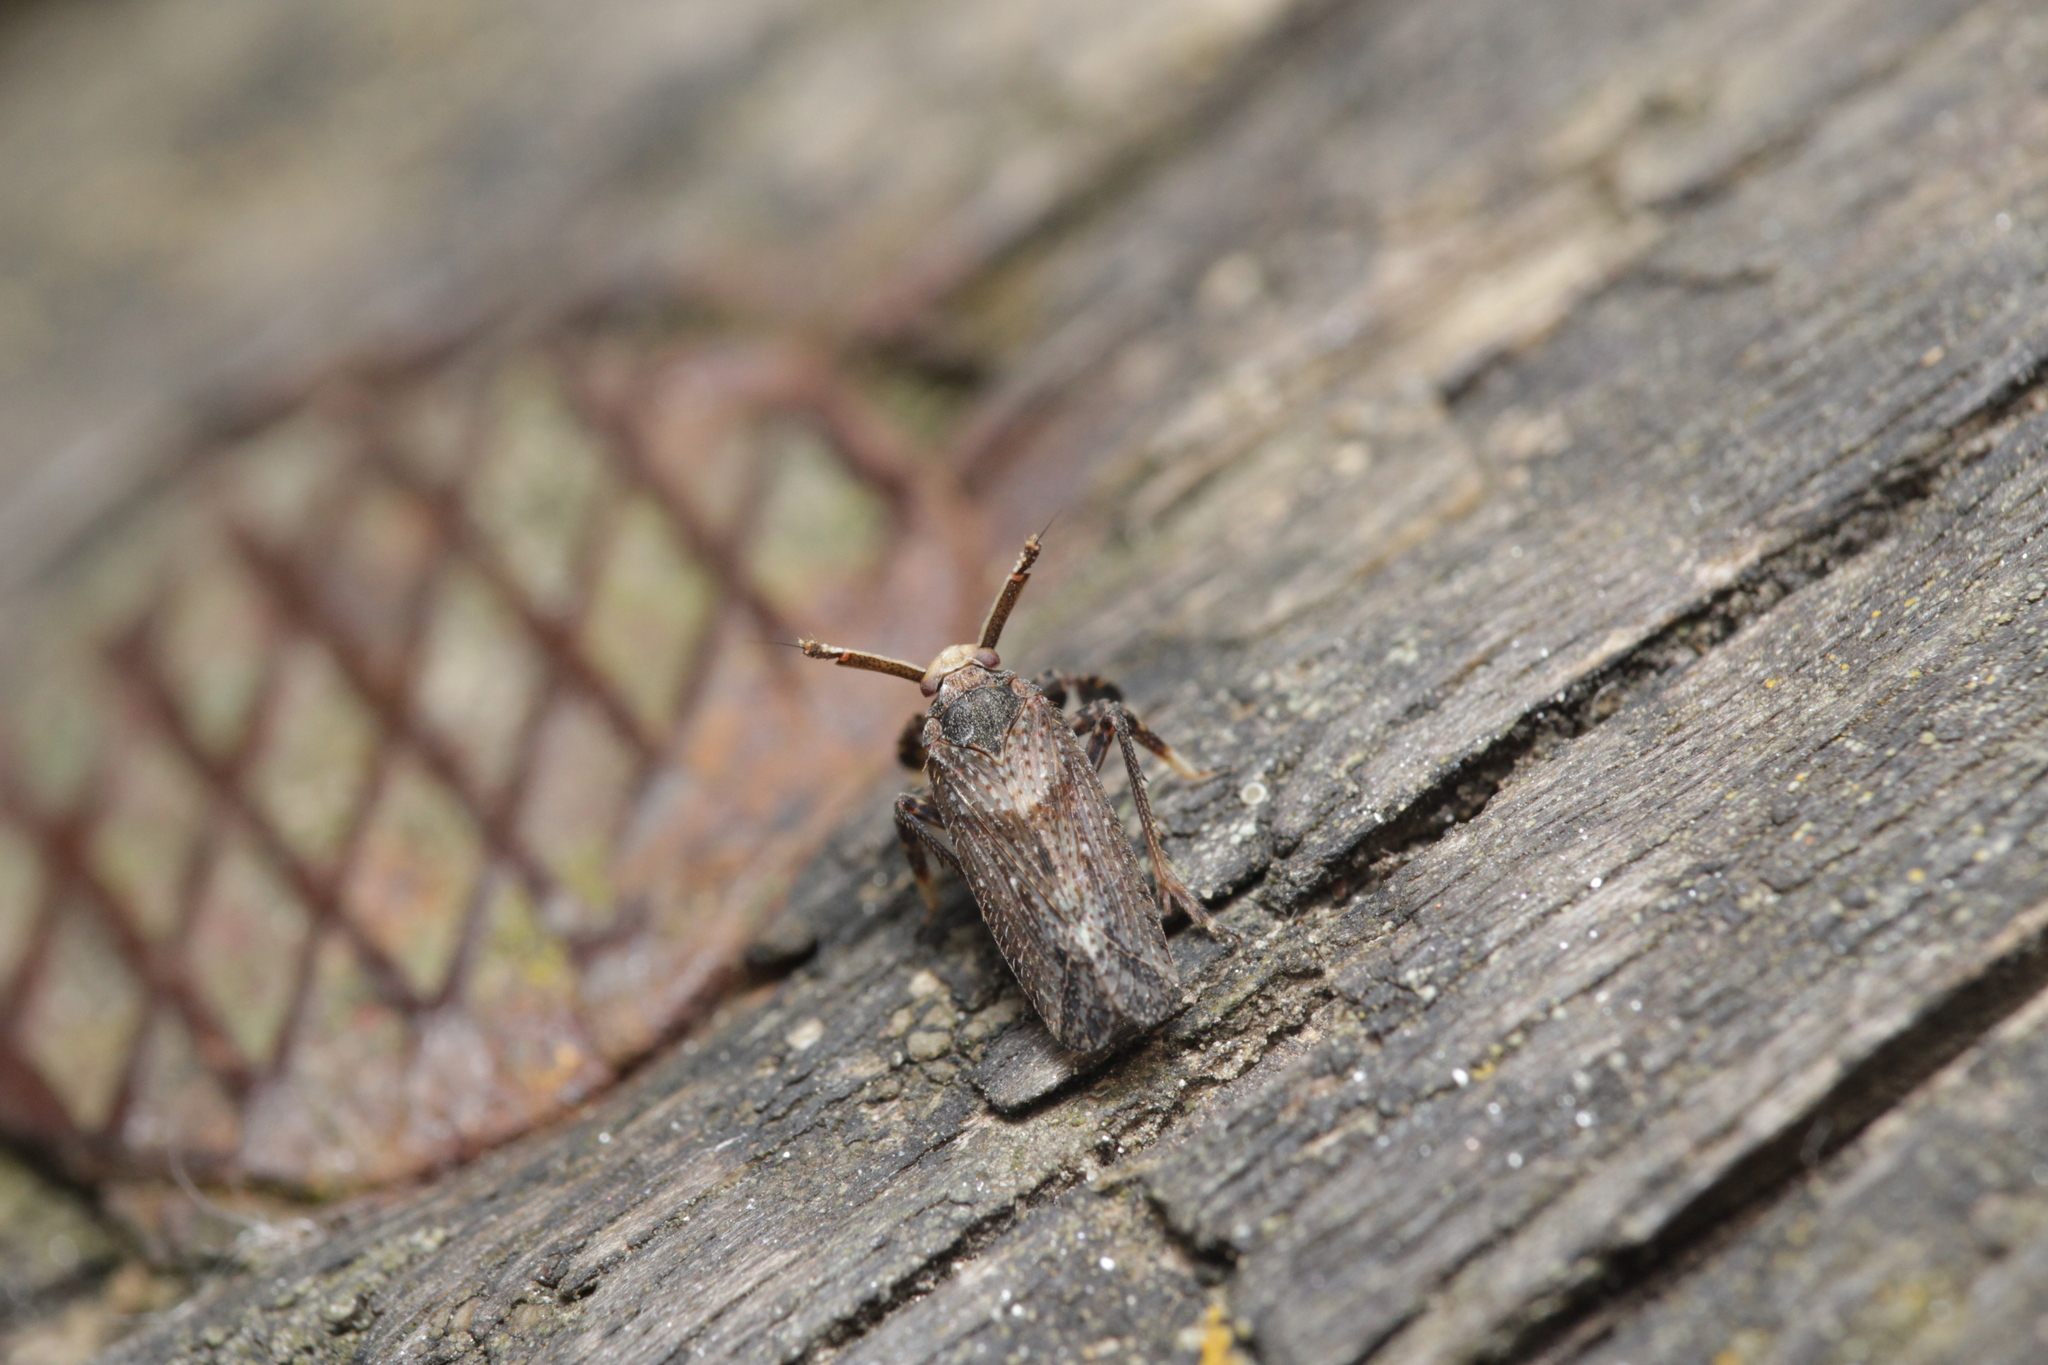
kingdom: Animalia
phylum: Arthropoda
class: Insecta
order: Hemiptera
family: Delphacidae
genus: Asiraca
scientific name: Asiraca clavicornis
